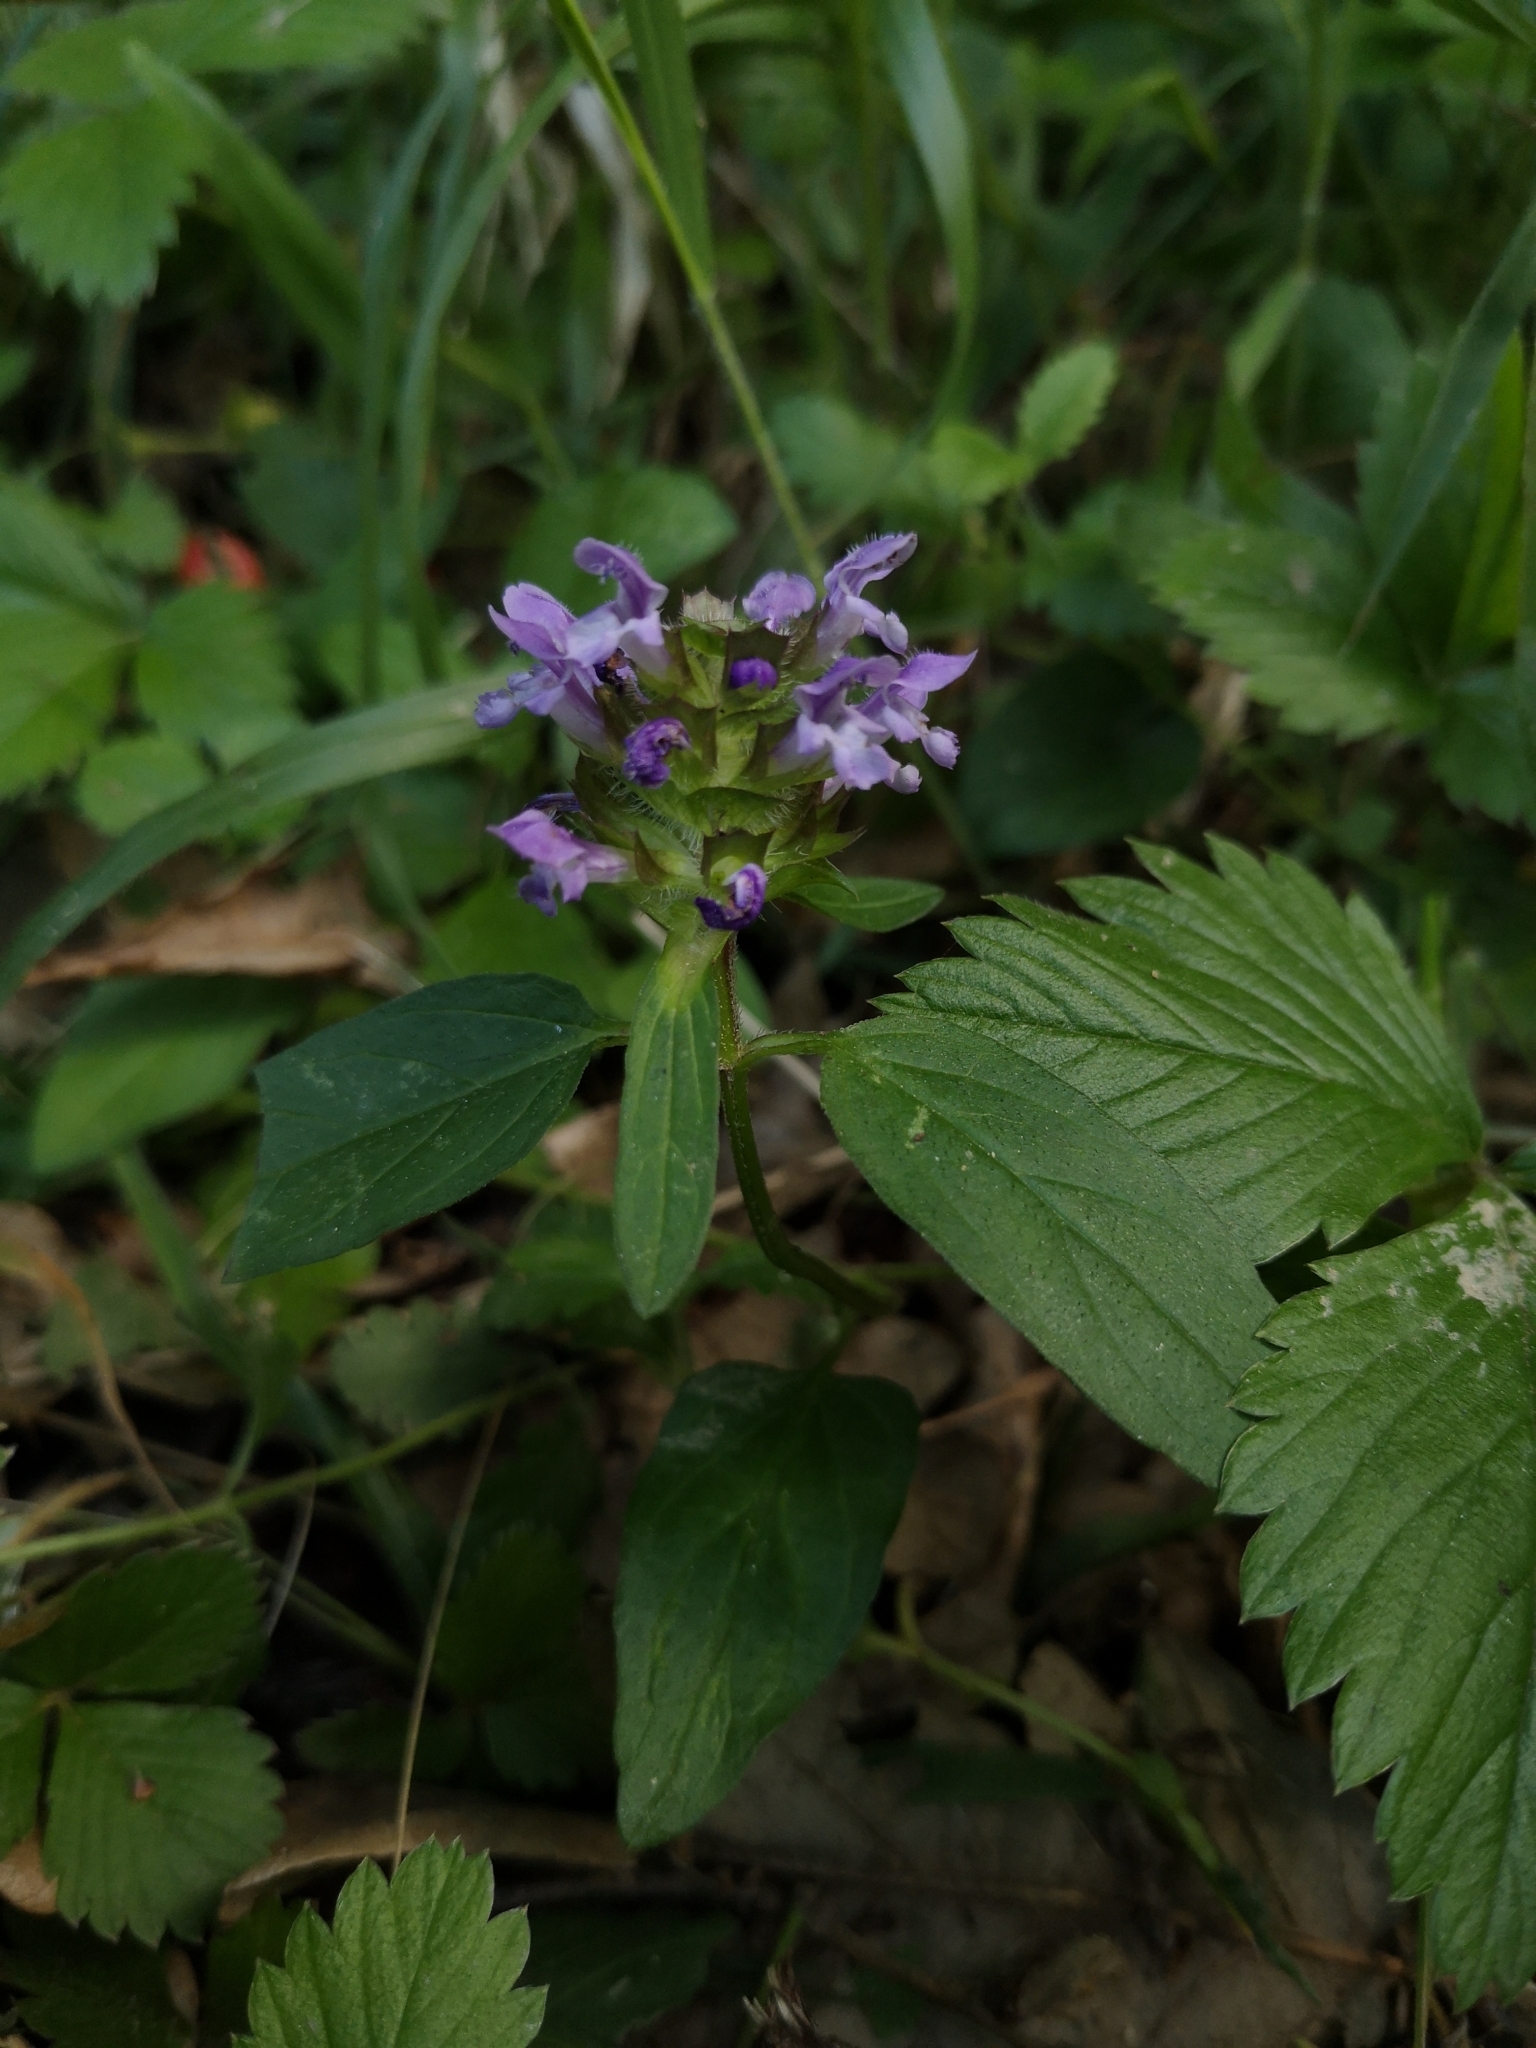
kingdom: Plantae
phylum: Tracheophyta
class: Magnoliopsida
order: Lamiales
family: Lamiaceae
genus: Prunella
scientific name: Prunella vulgaris
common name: Heal-all
